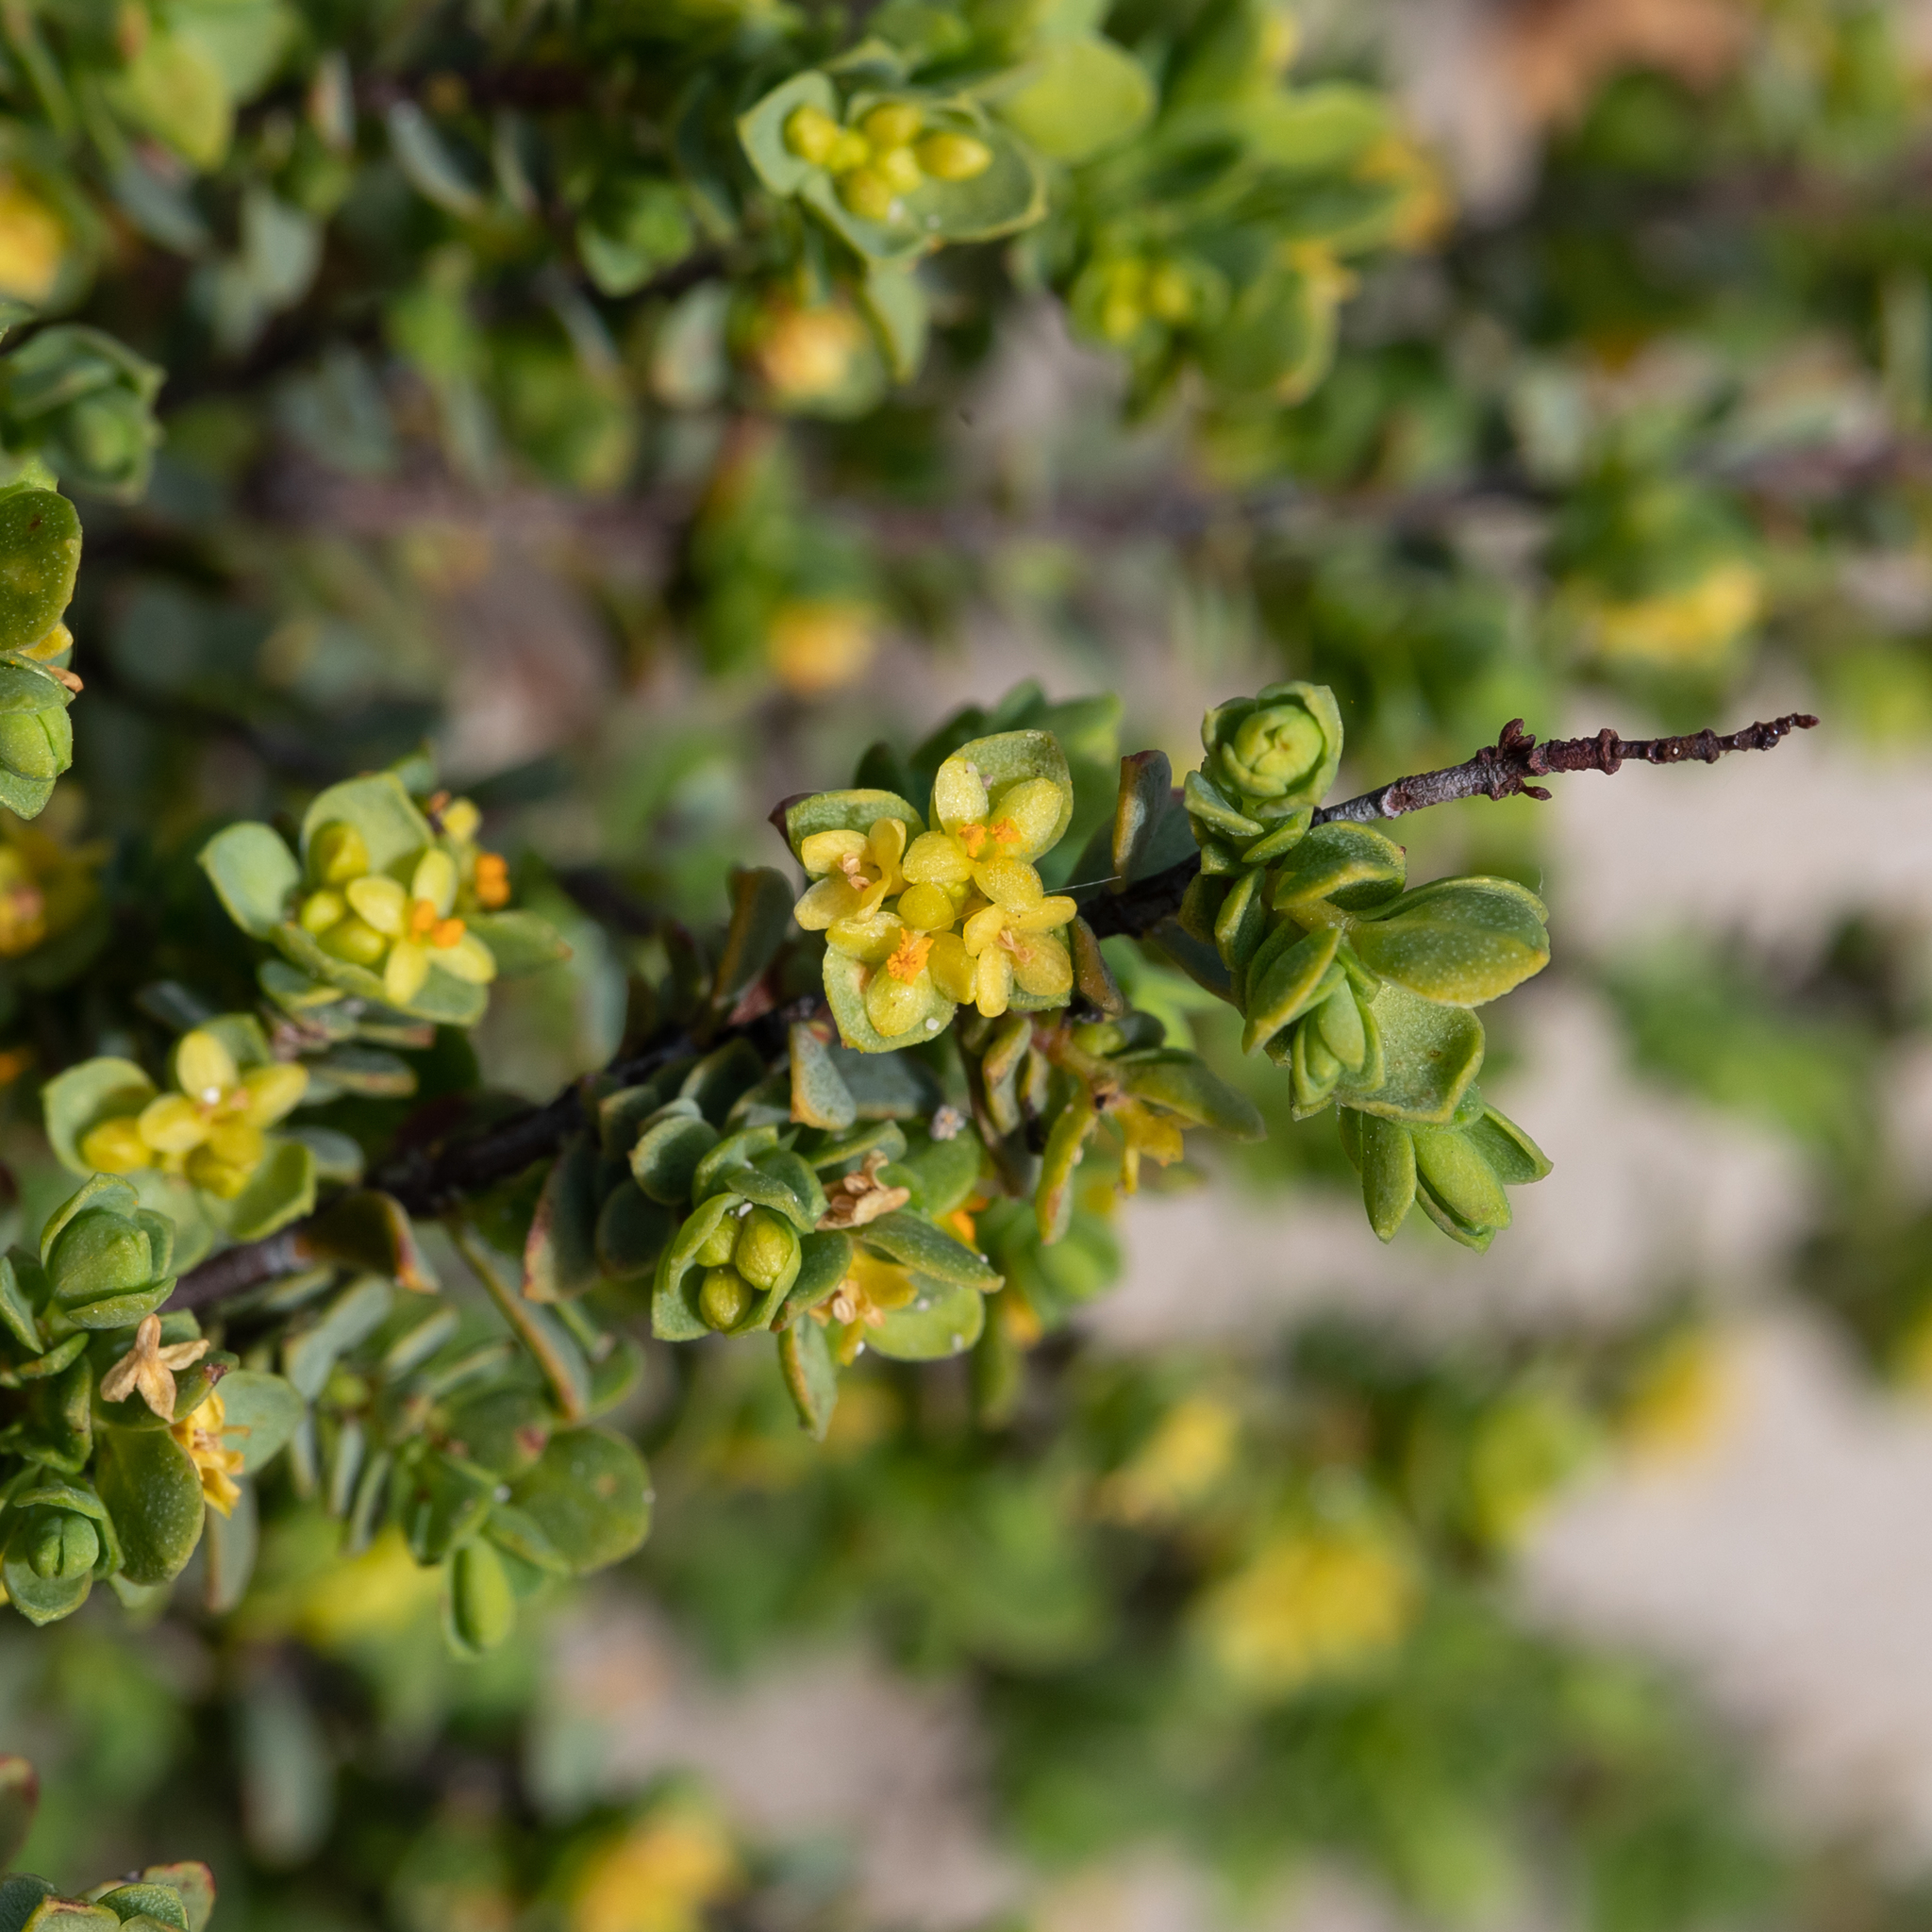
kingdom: Plantae
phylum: Tracheophyta
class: Magnoliopsida
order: Malvales
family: Thymelaeaceae
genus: Pimelea
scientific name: Pimelea serpyllifolia
